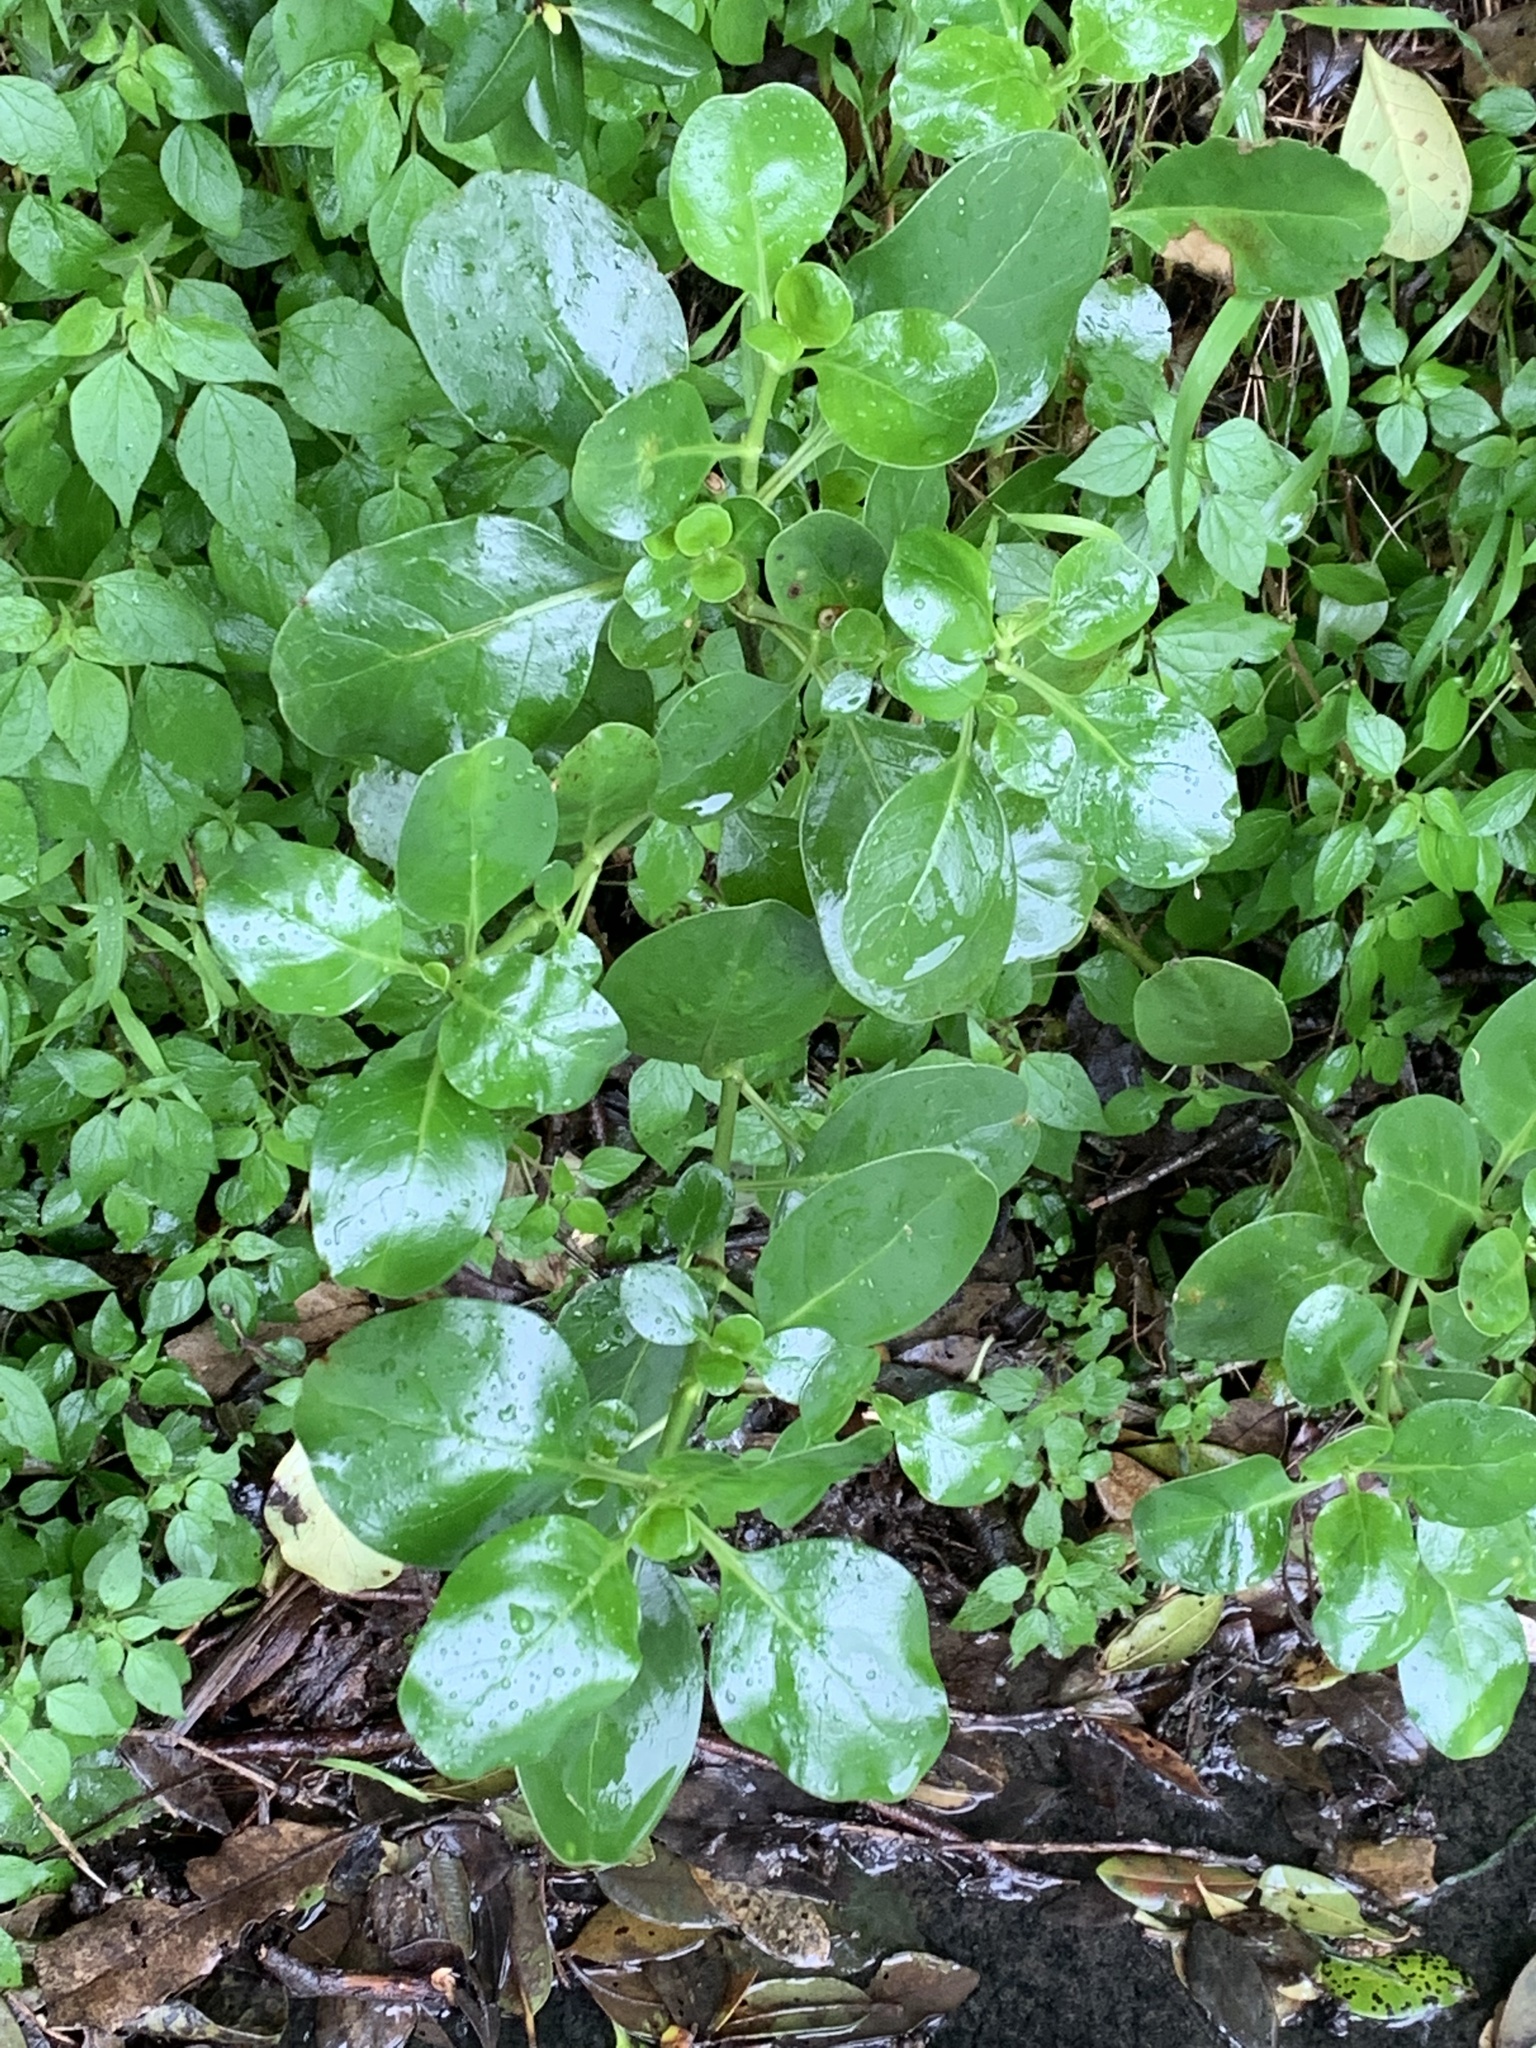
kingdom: Plantae
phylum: Tracheophyta
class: Magnoliopsida
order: Gentianales
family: Rubiaceae
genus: Coprosma
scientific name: Coprosma repens
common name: Tree bedstraw
